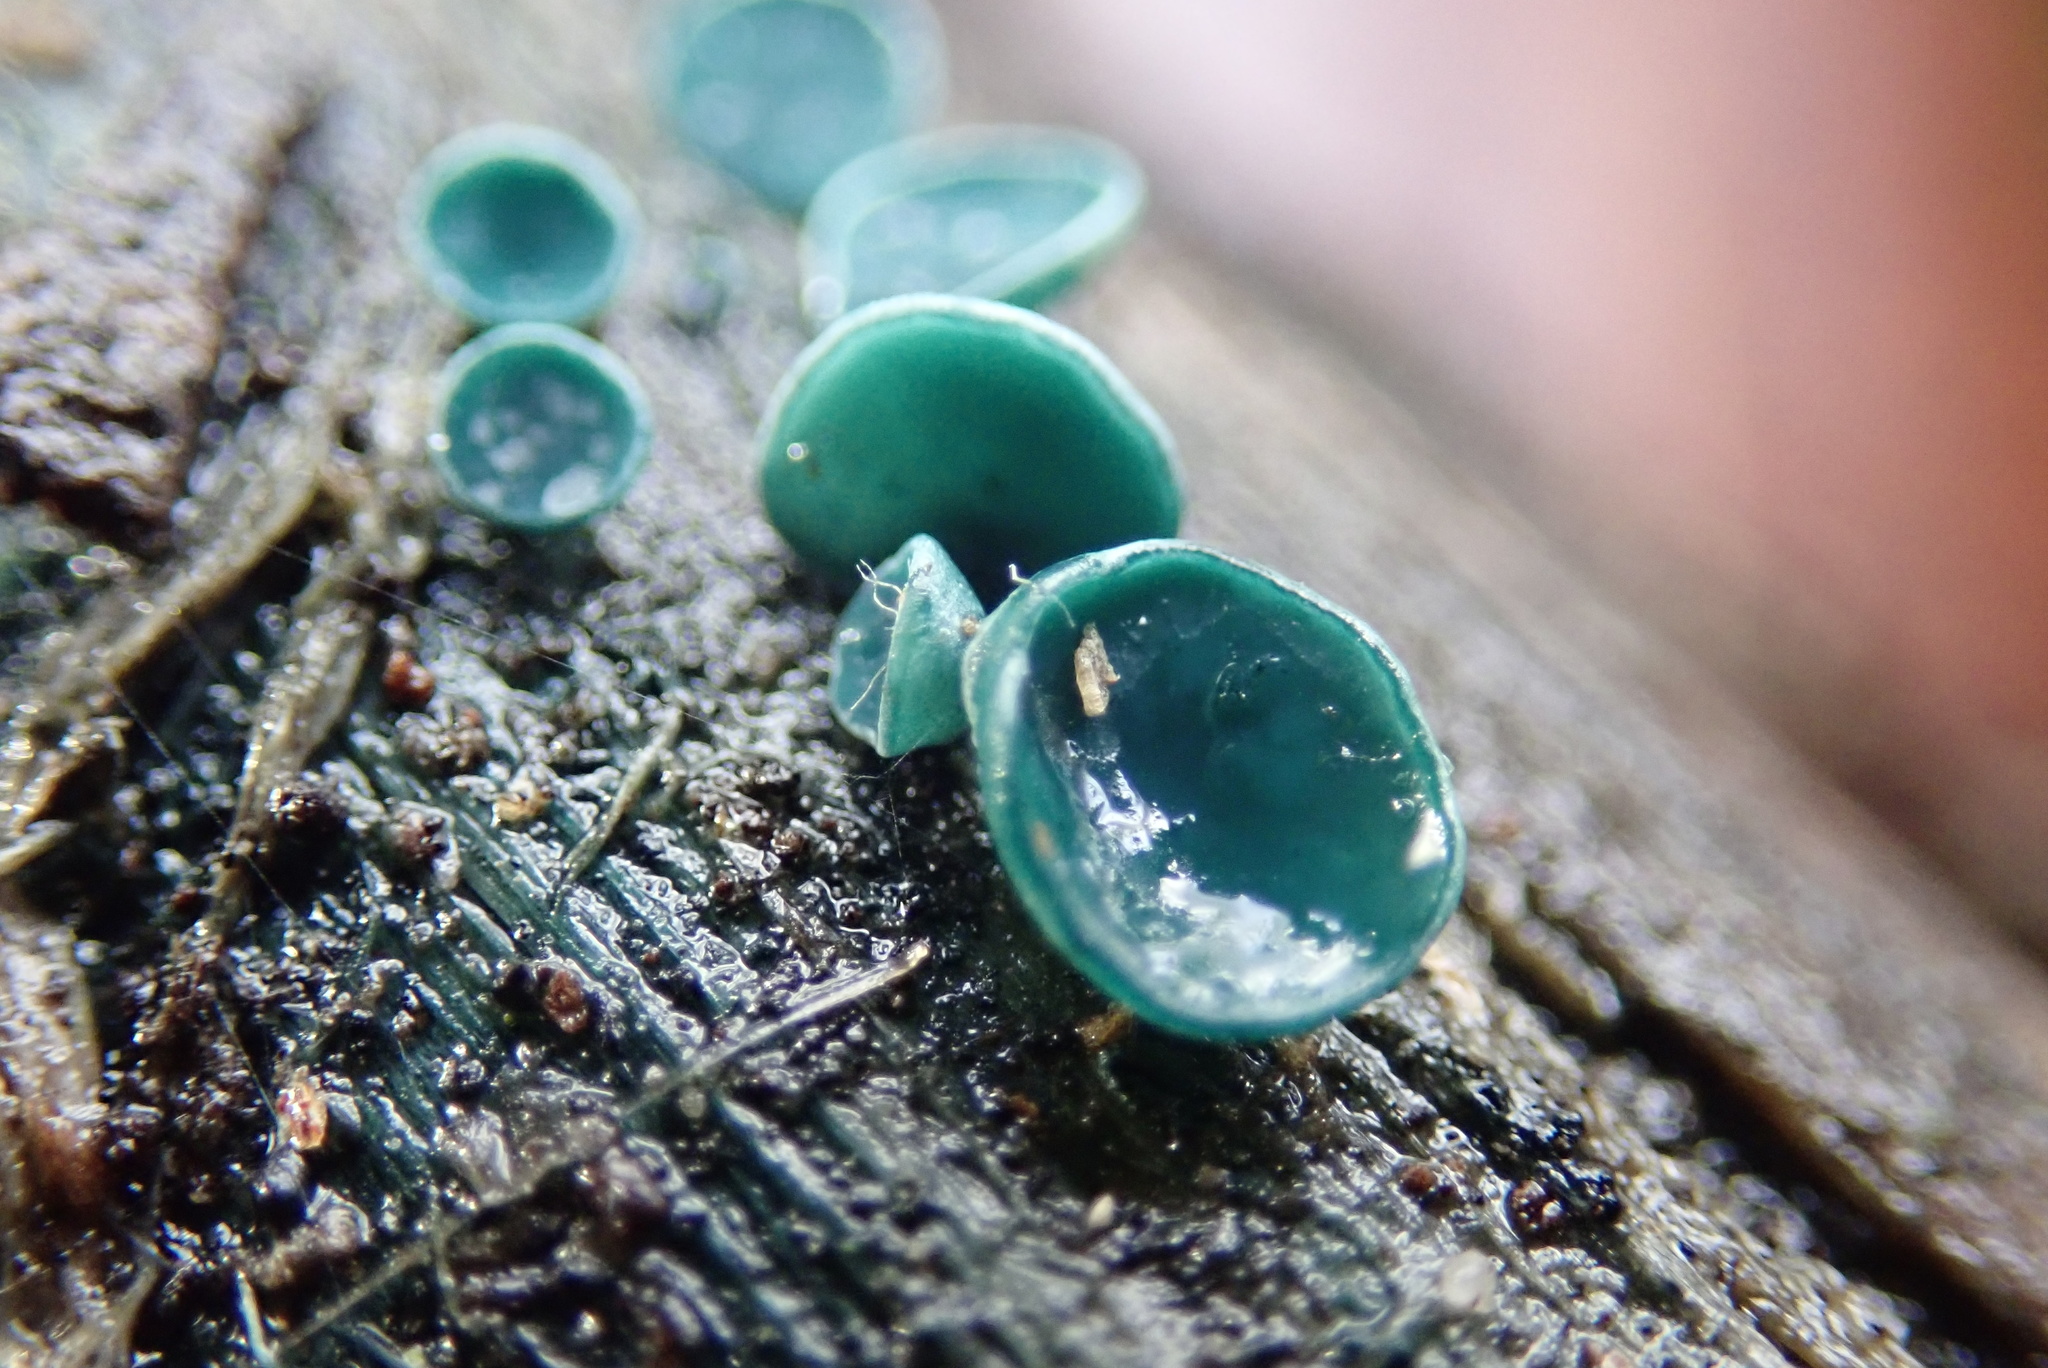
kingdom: Fungi
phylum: Ascomycota
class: Leotiomycetes
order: Helotiales
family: Chlorociboriaceae
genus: Chlorociboria
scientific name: Chlorociboria
